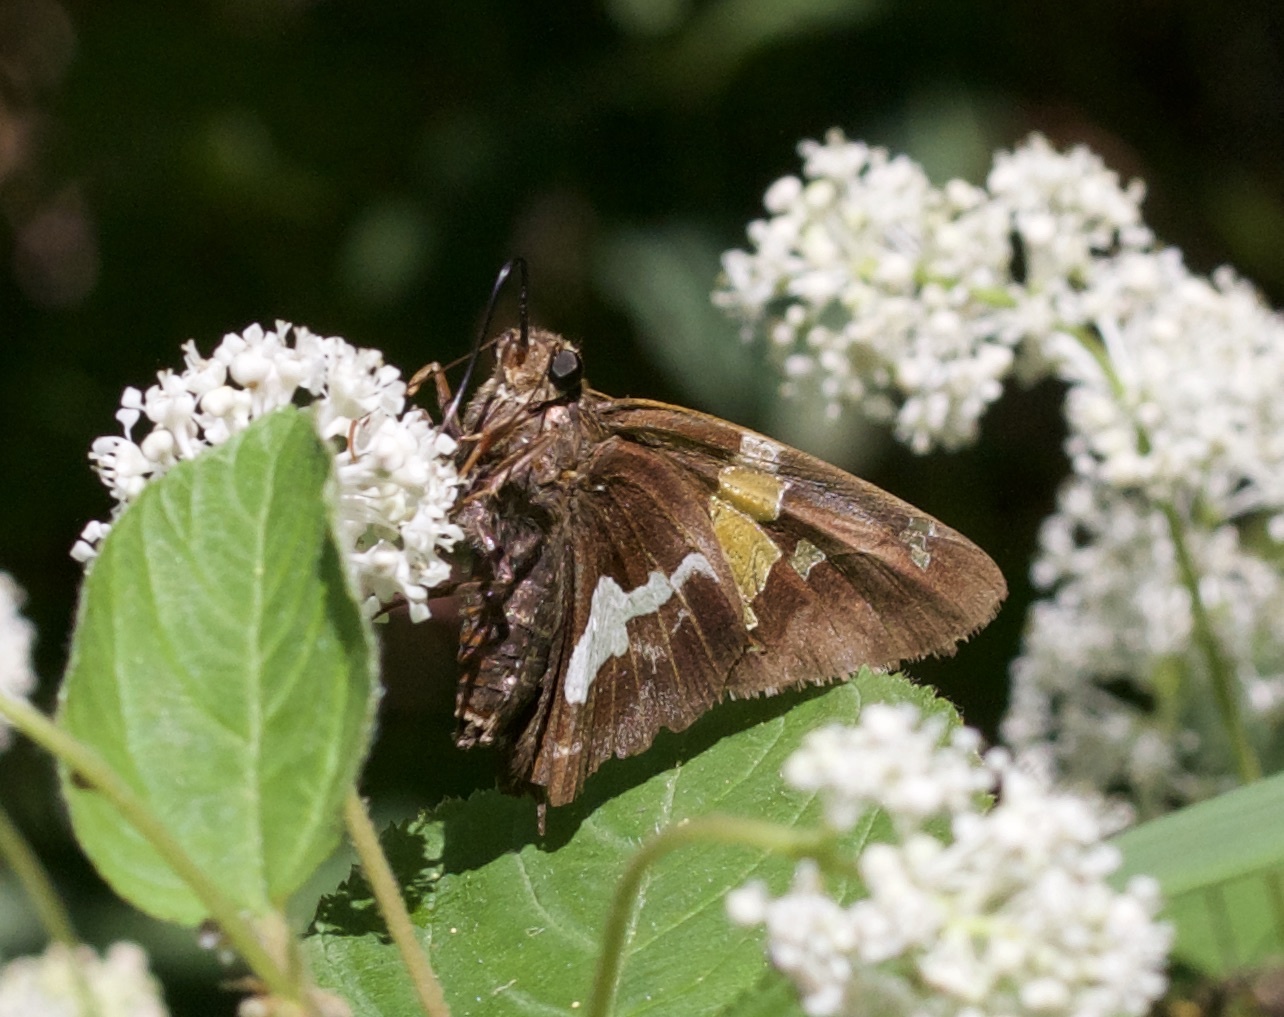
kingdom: Animalia
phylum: Arthropoda
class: Insecta
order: Lepidoptera
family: Hesperiidae
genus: Epargyreus
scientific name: Epargyreus clarus
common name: Silver-spotted skipper
